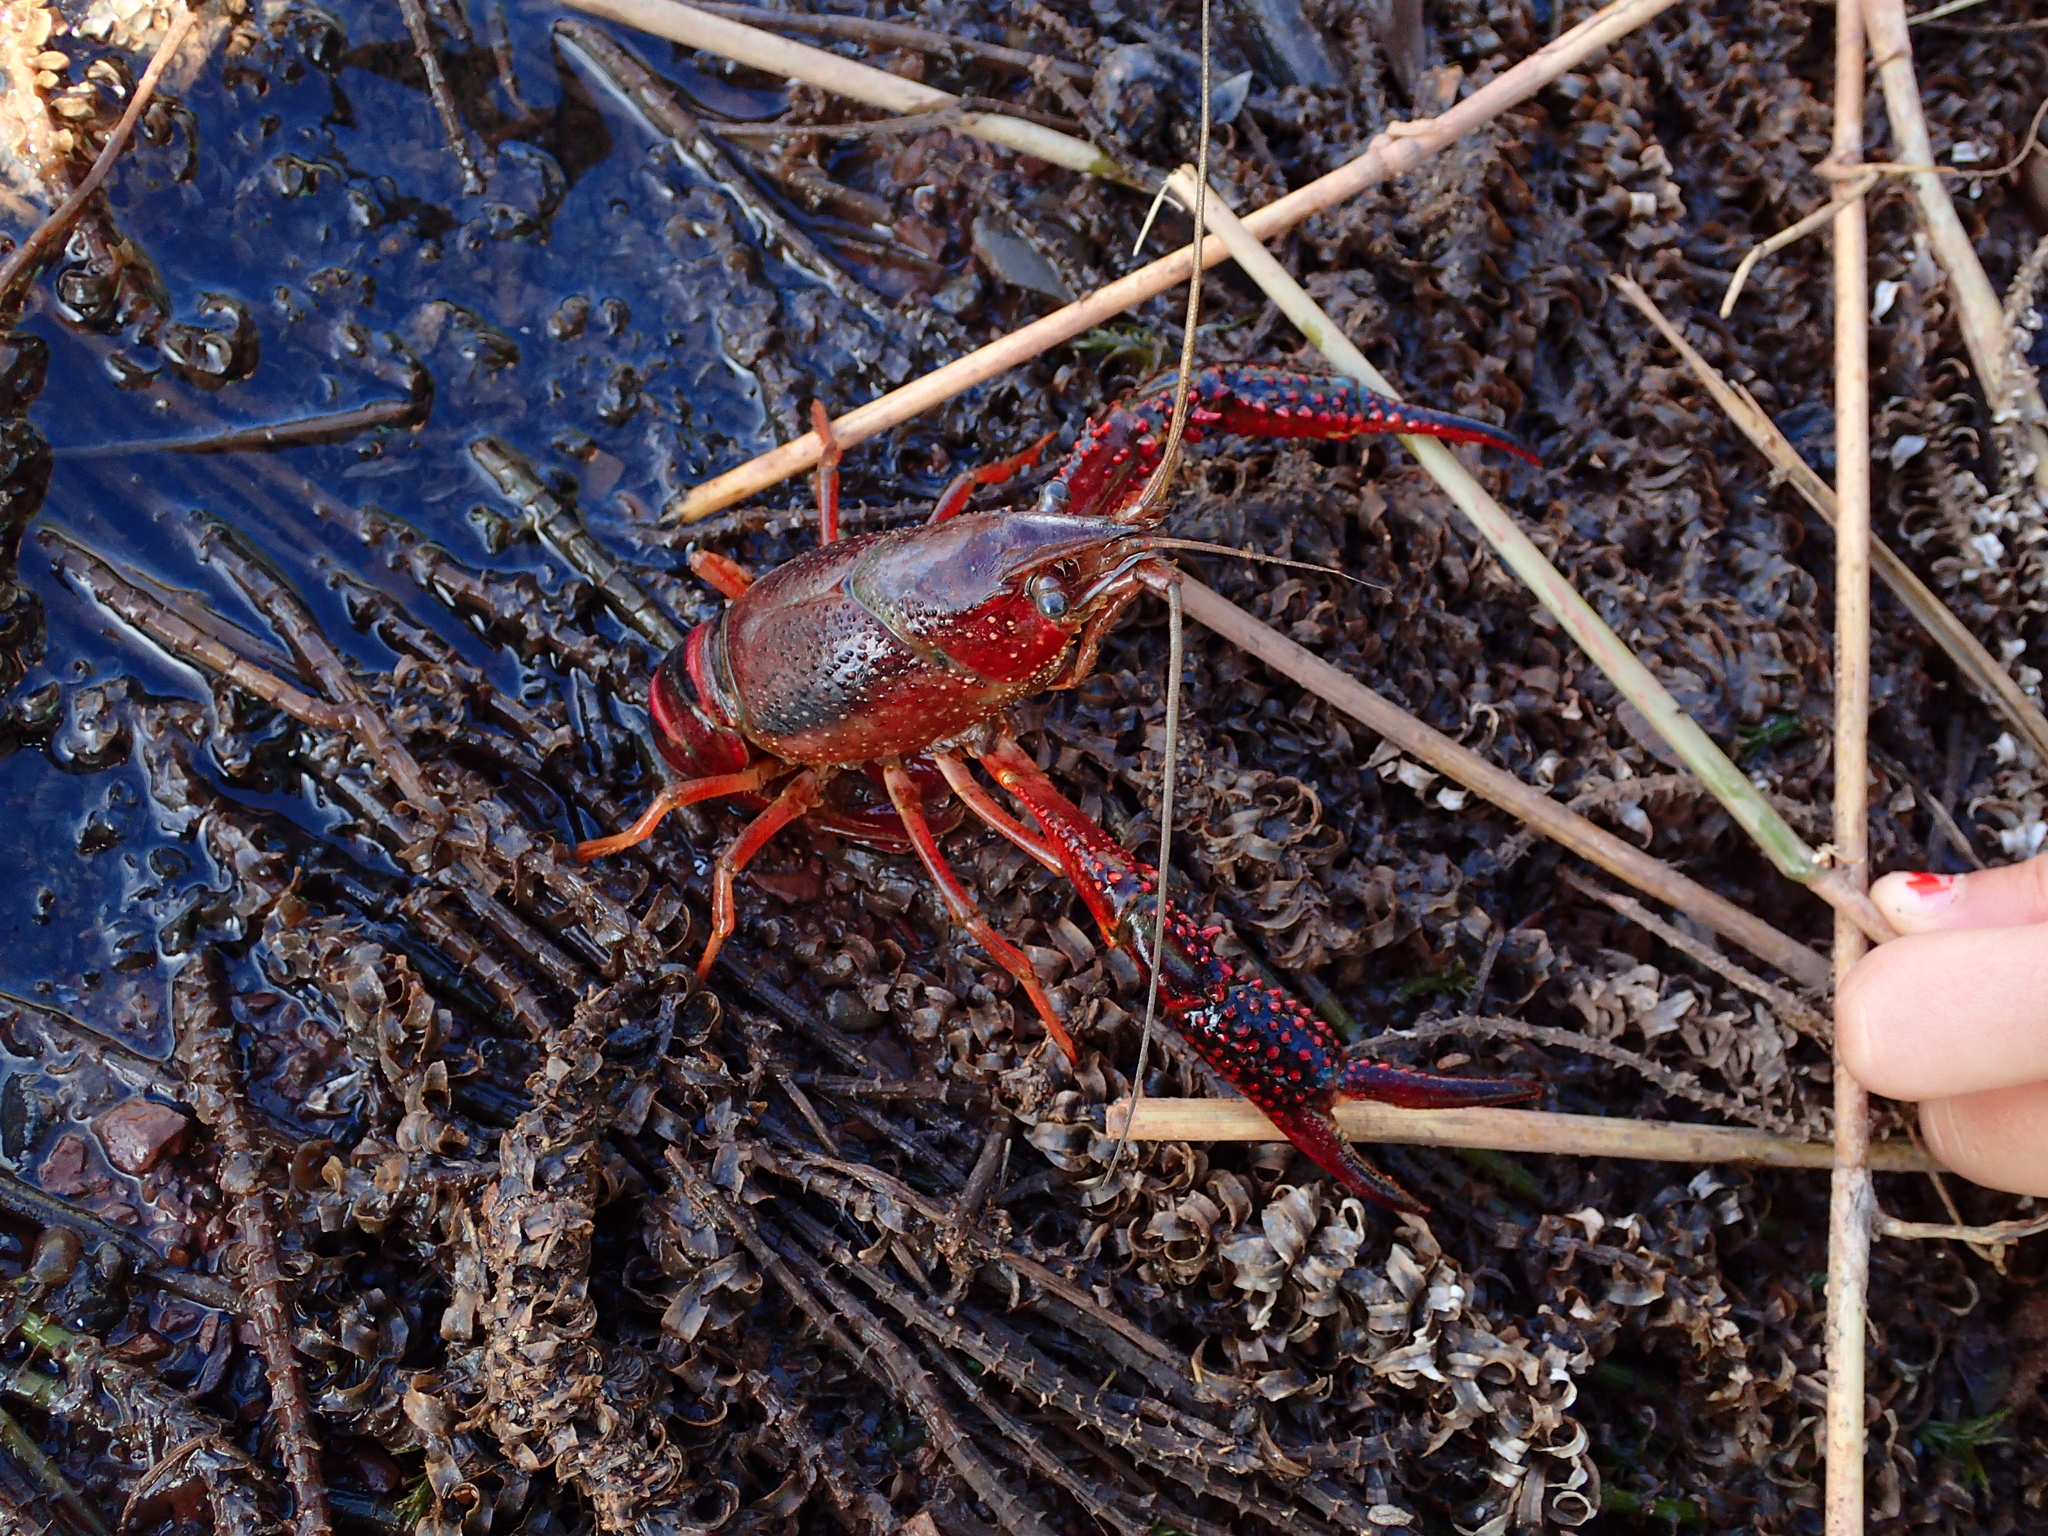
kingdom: Animalia
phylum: Arthropoda
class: Malacostraca
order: Decapoda
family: Cambaridae
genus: Procambarus
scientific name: Procambarus clarkii
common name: Red swamp crayfish
